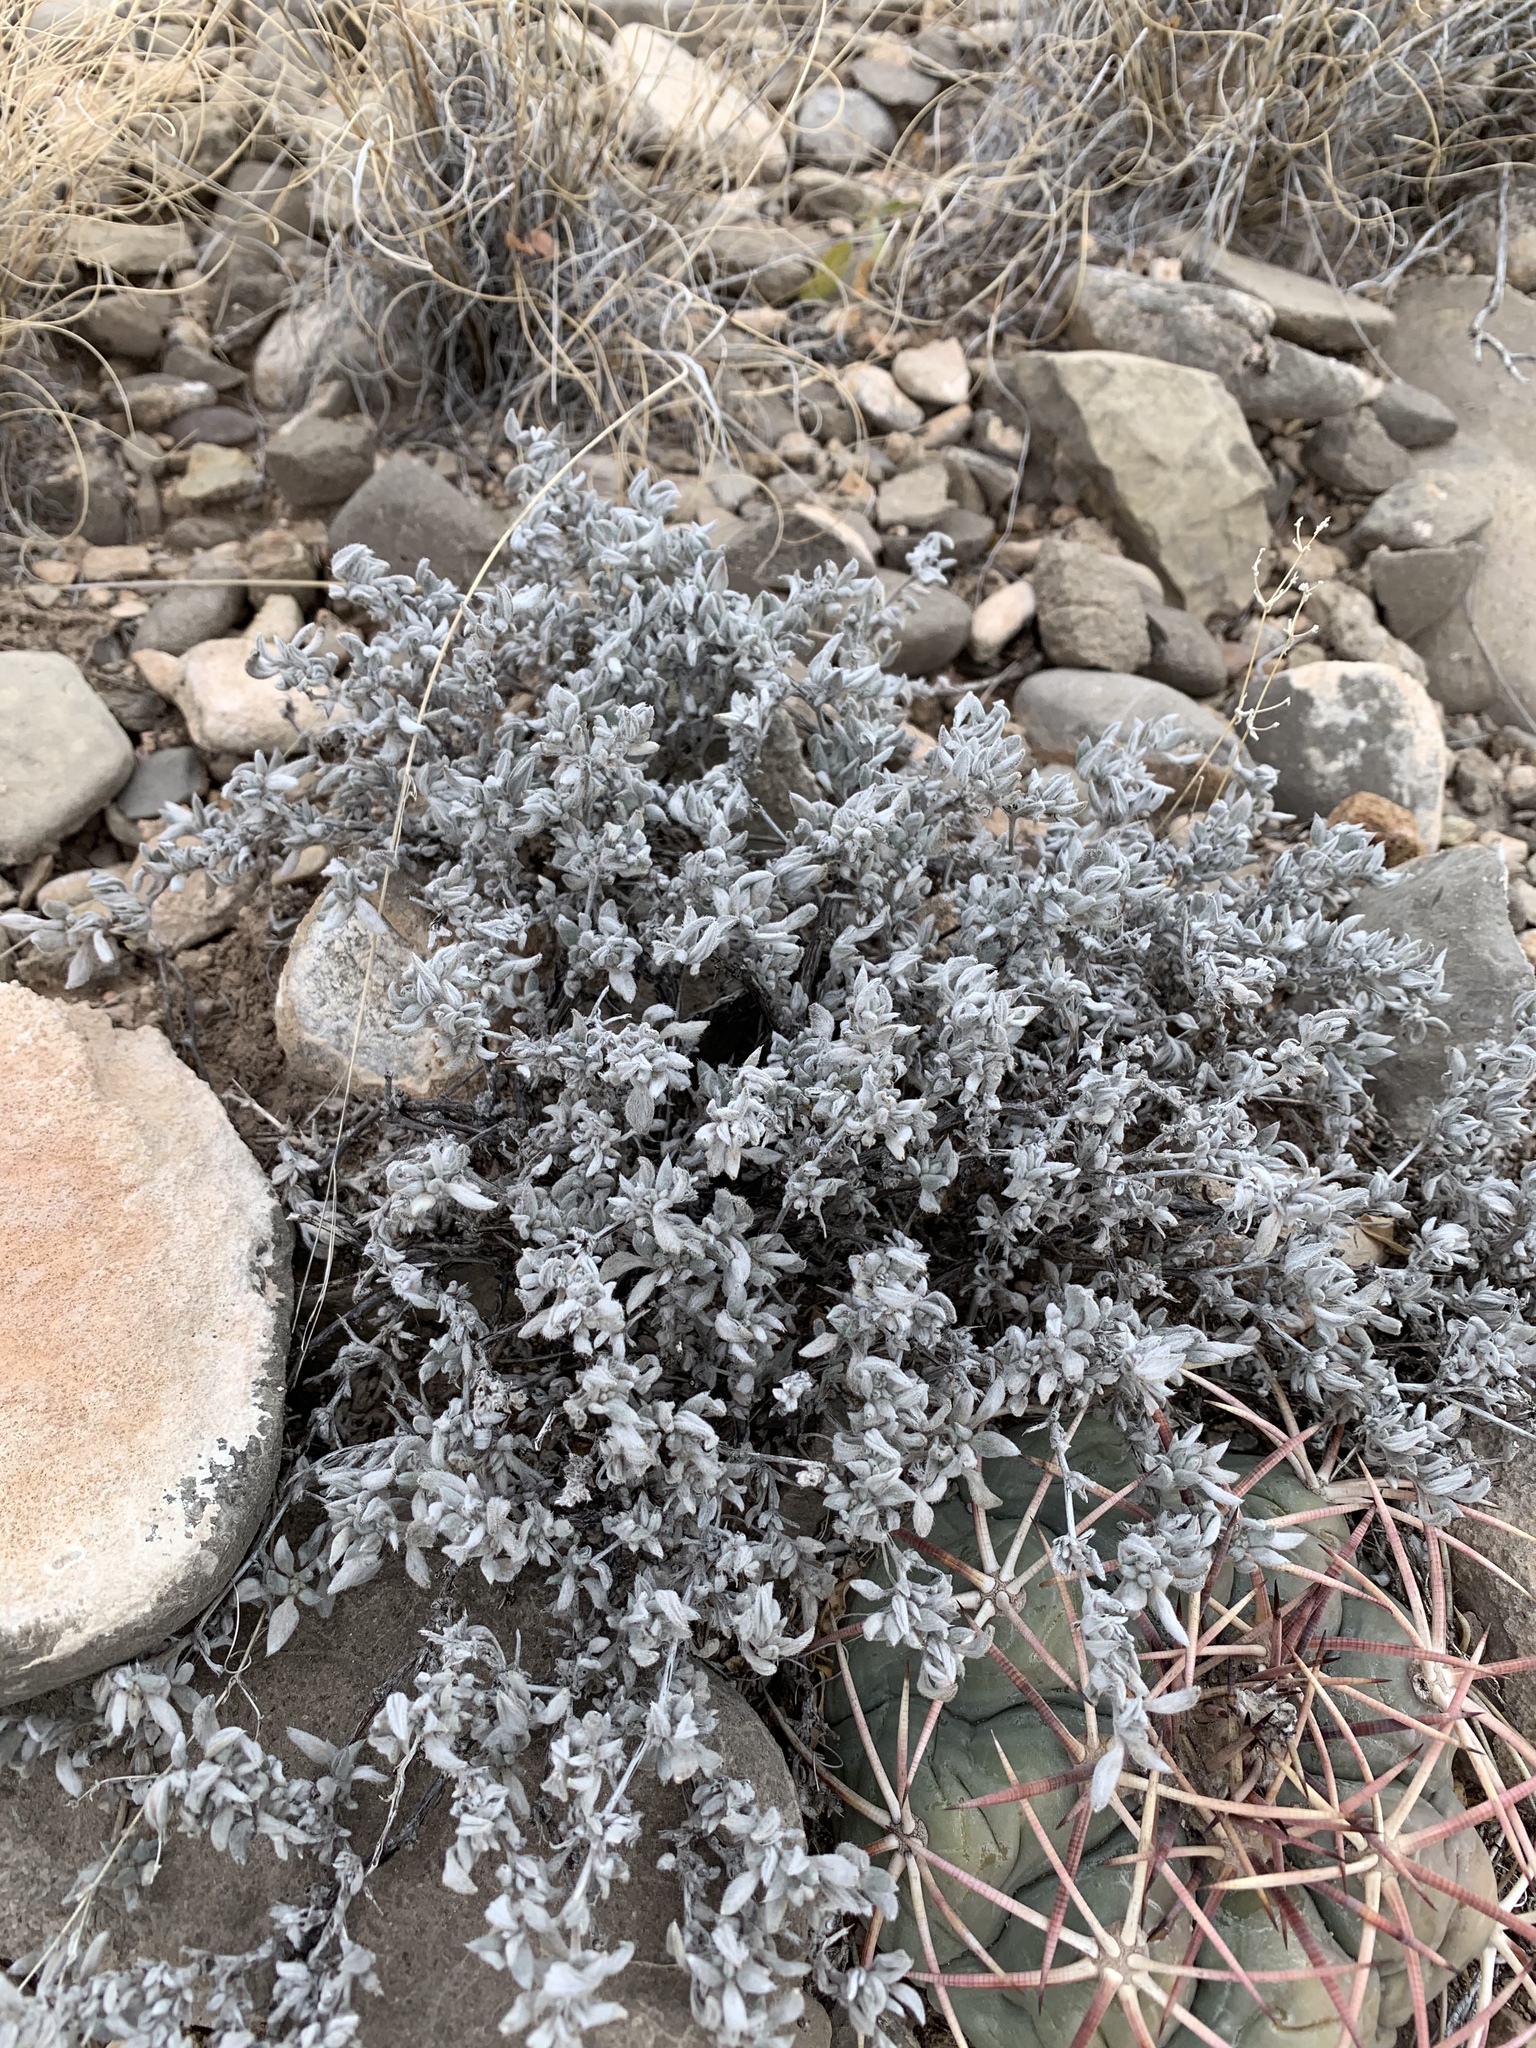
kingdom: Plantae
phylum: Tracheophyta
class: Magnoliopsida
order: Boraginales
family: Ehretiaceae
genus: Tiquilia
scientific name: Tiquilia canescens
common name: Hairy tiquilia
